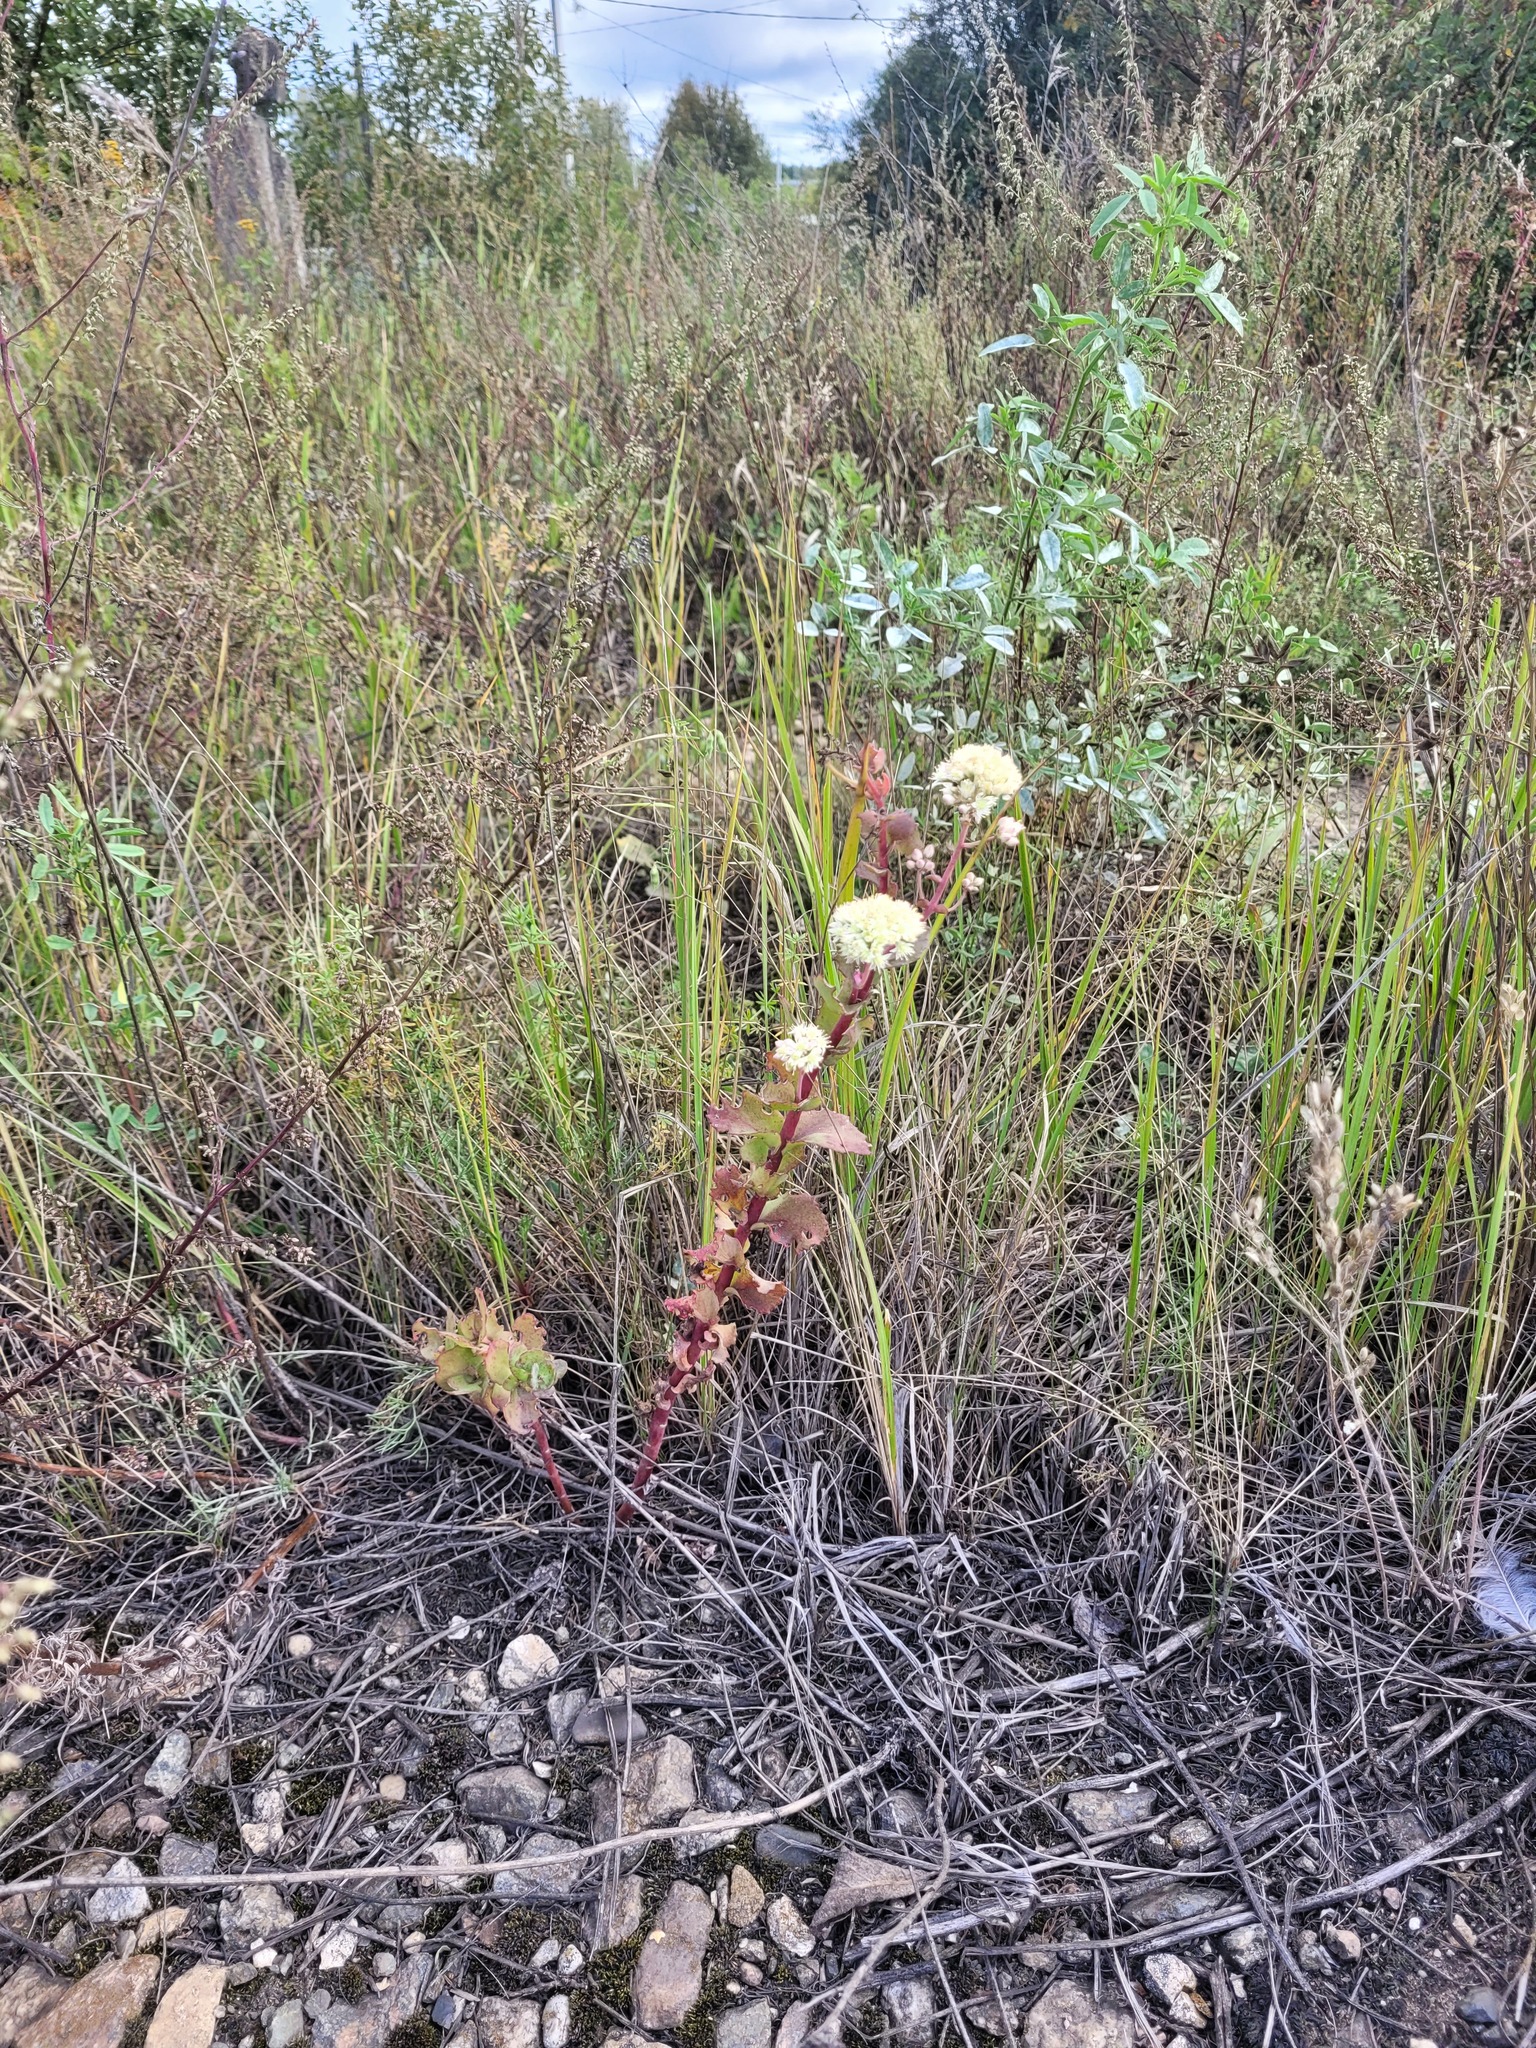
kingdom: Plantae
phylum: Tracheophyta
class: Magnoliopsida
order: Saxifragales
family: Crassulaceae
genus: Hylotelephium
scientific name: Hylotelephium maximum
